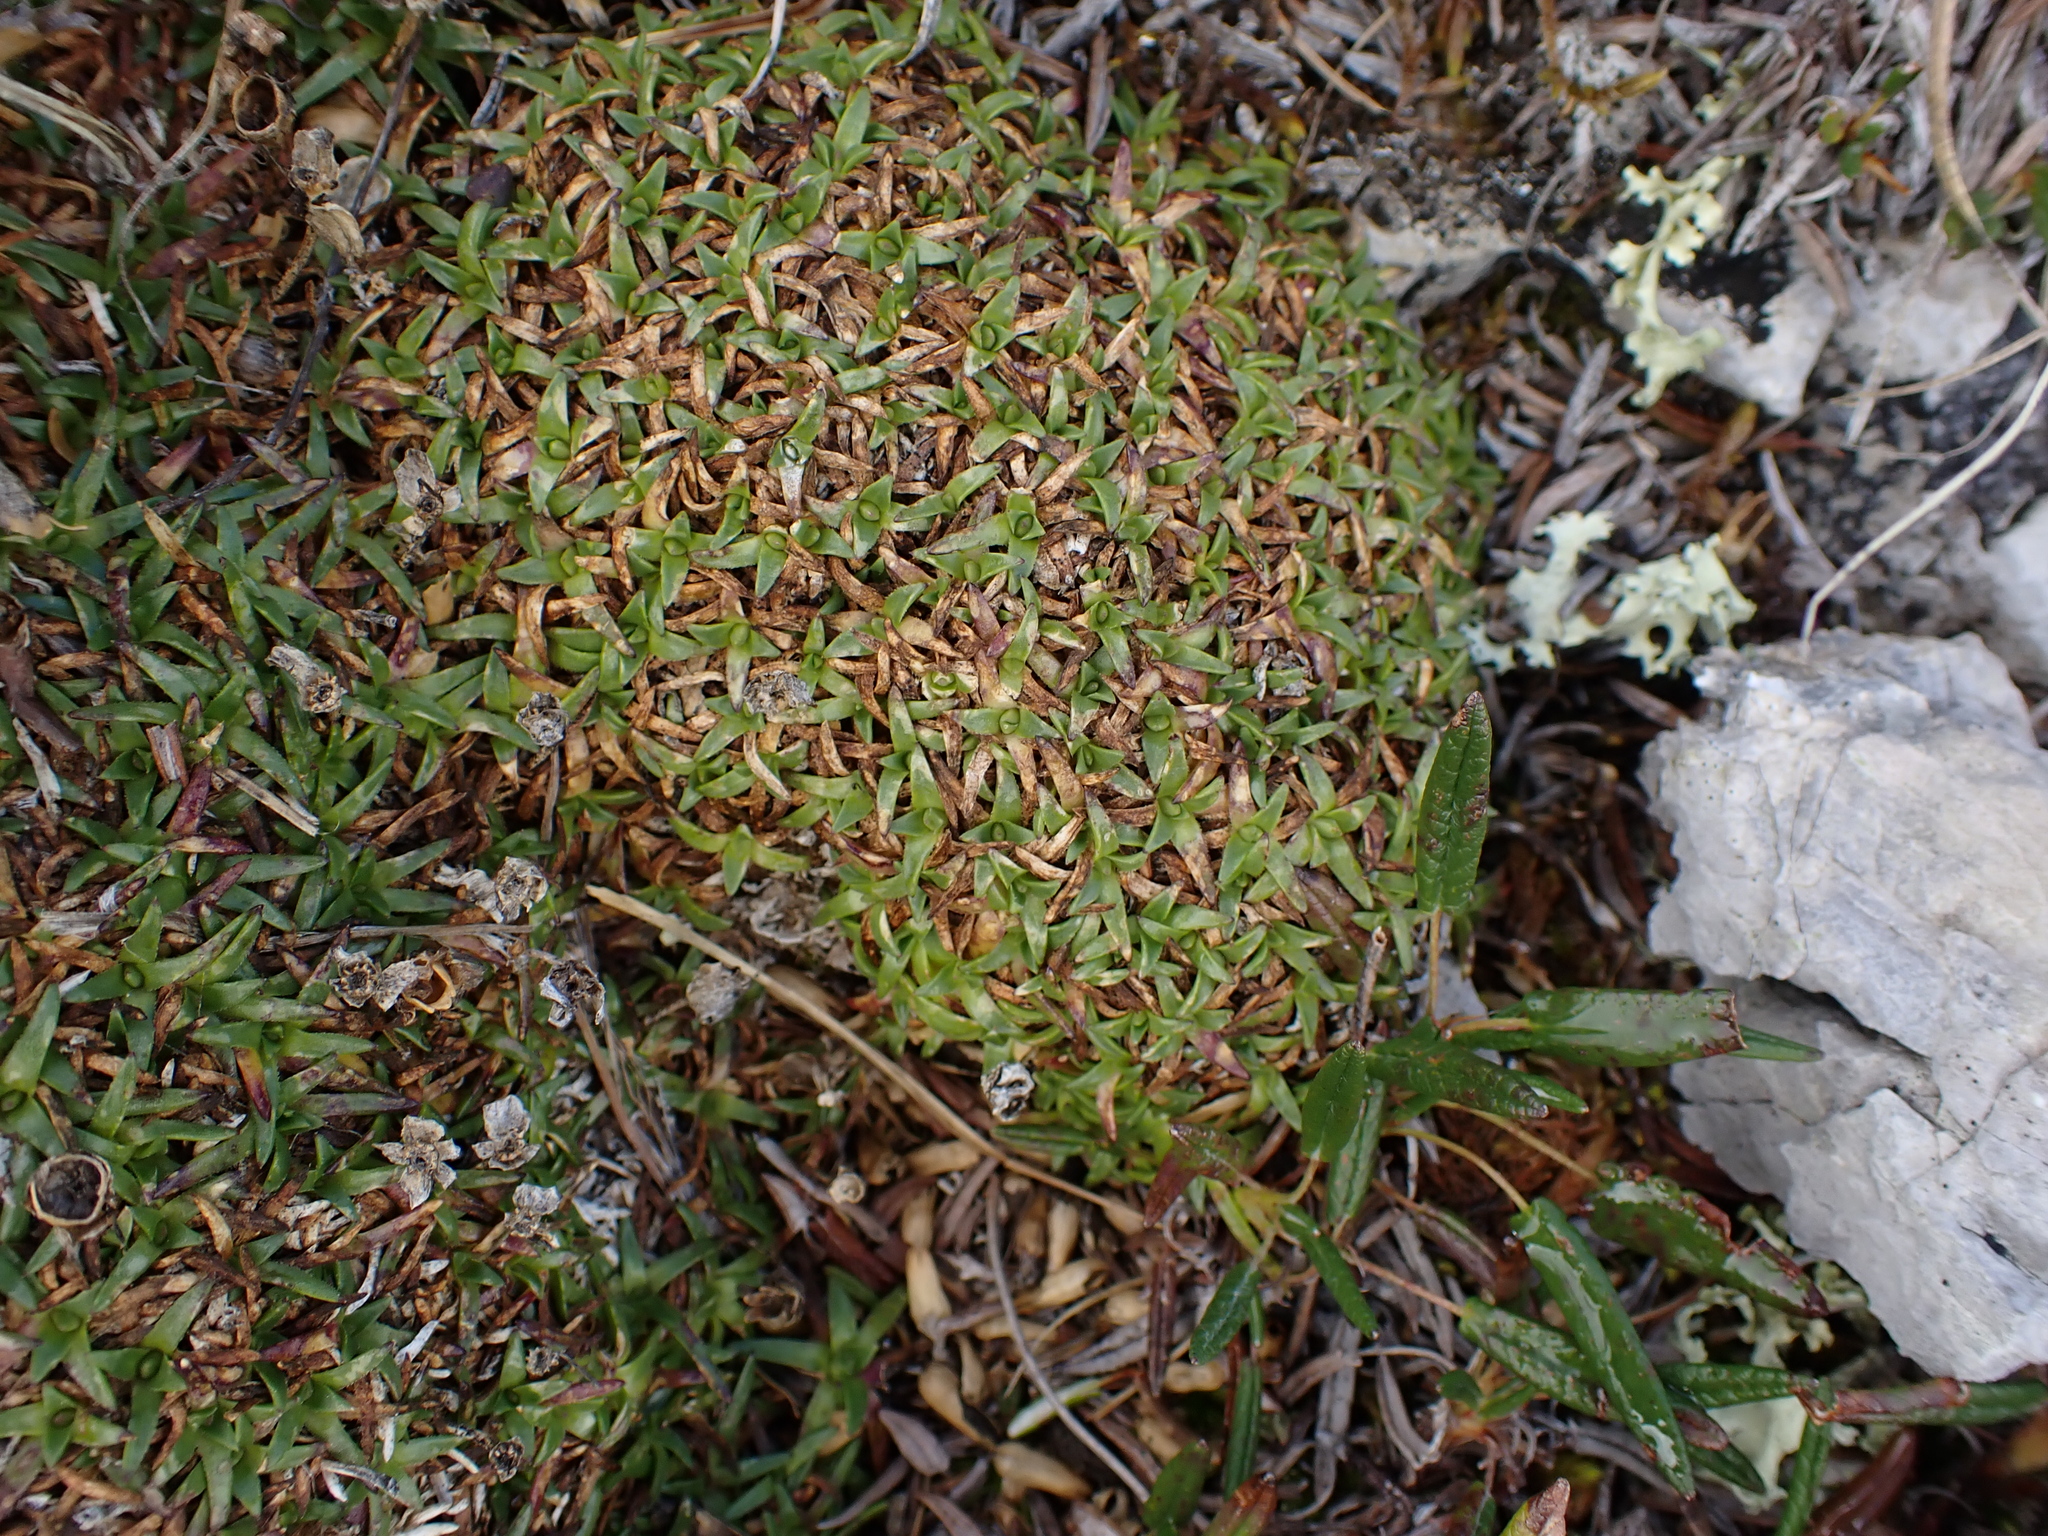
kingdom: Plantae
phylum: Tracheophyta
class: Magnoliopsida
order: Caryophyllales
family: Caryophyllaceae
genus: Silene
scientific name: Silene acaulis
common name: Moss campion
